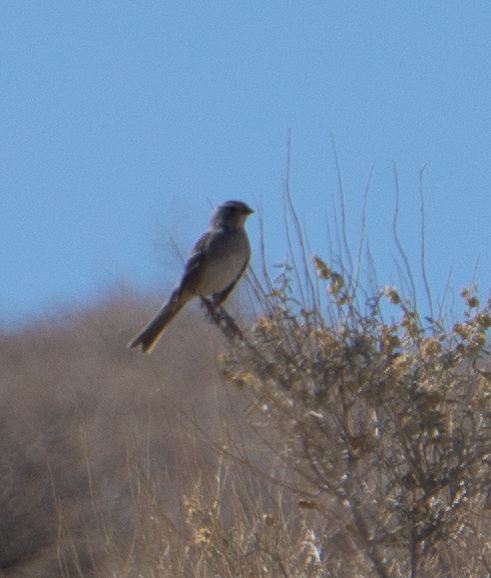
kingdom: Animalia
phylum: Chordata
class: Aves
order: Passeriformes
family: Passerellidae
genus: Zonotrichia
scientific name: Zonotrichia leucophrys
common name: White-crowned sparrow
